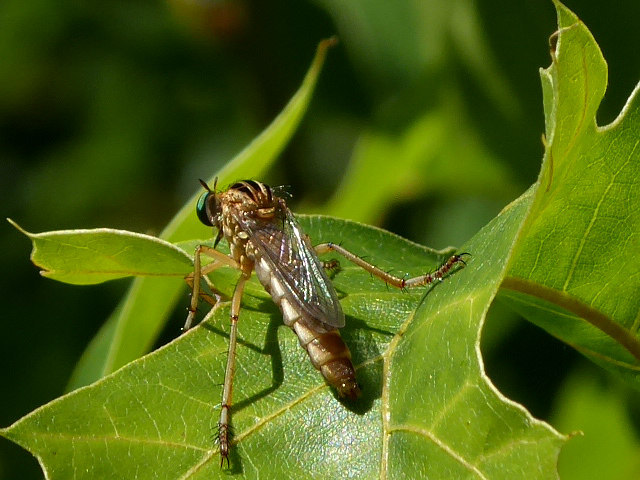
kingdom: Animalia
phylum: Arthropoda
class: Insecta
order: Diptera
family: Asilidae
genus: Diogmites
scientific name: Diogmites misellus
